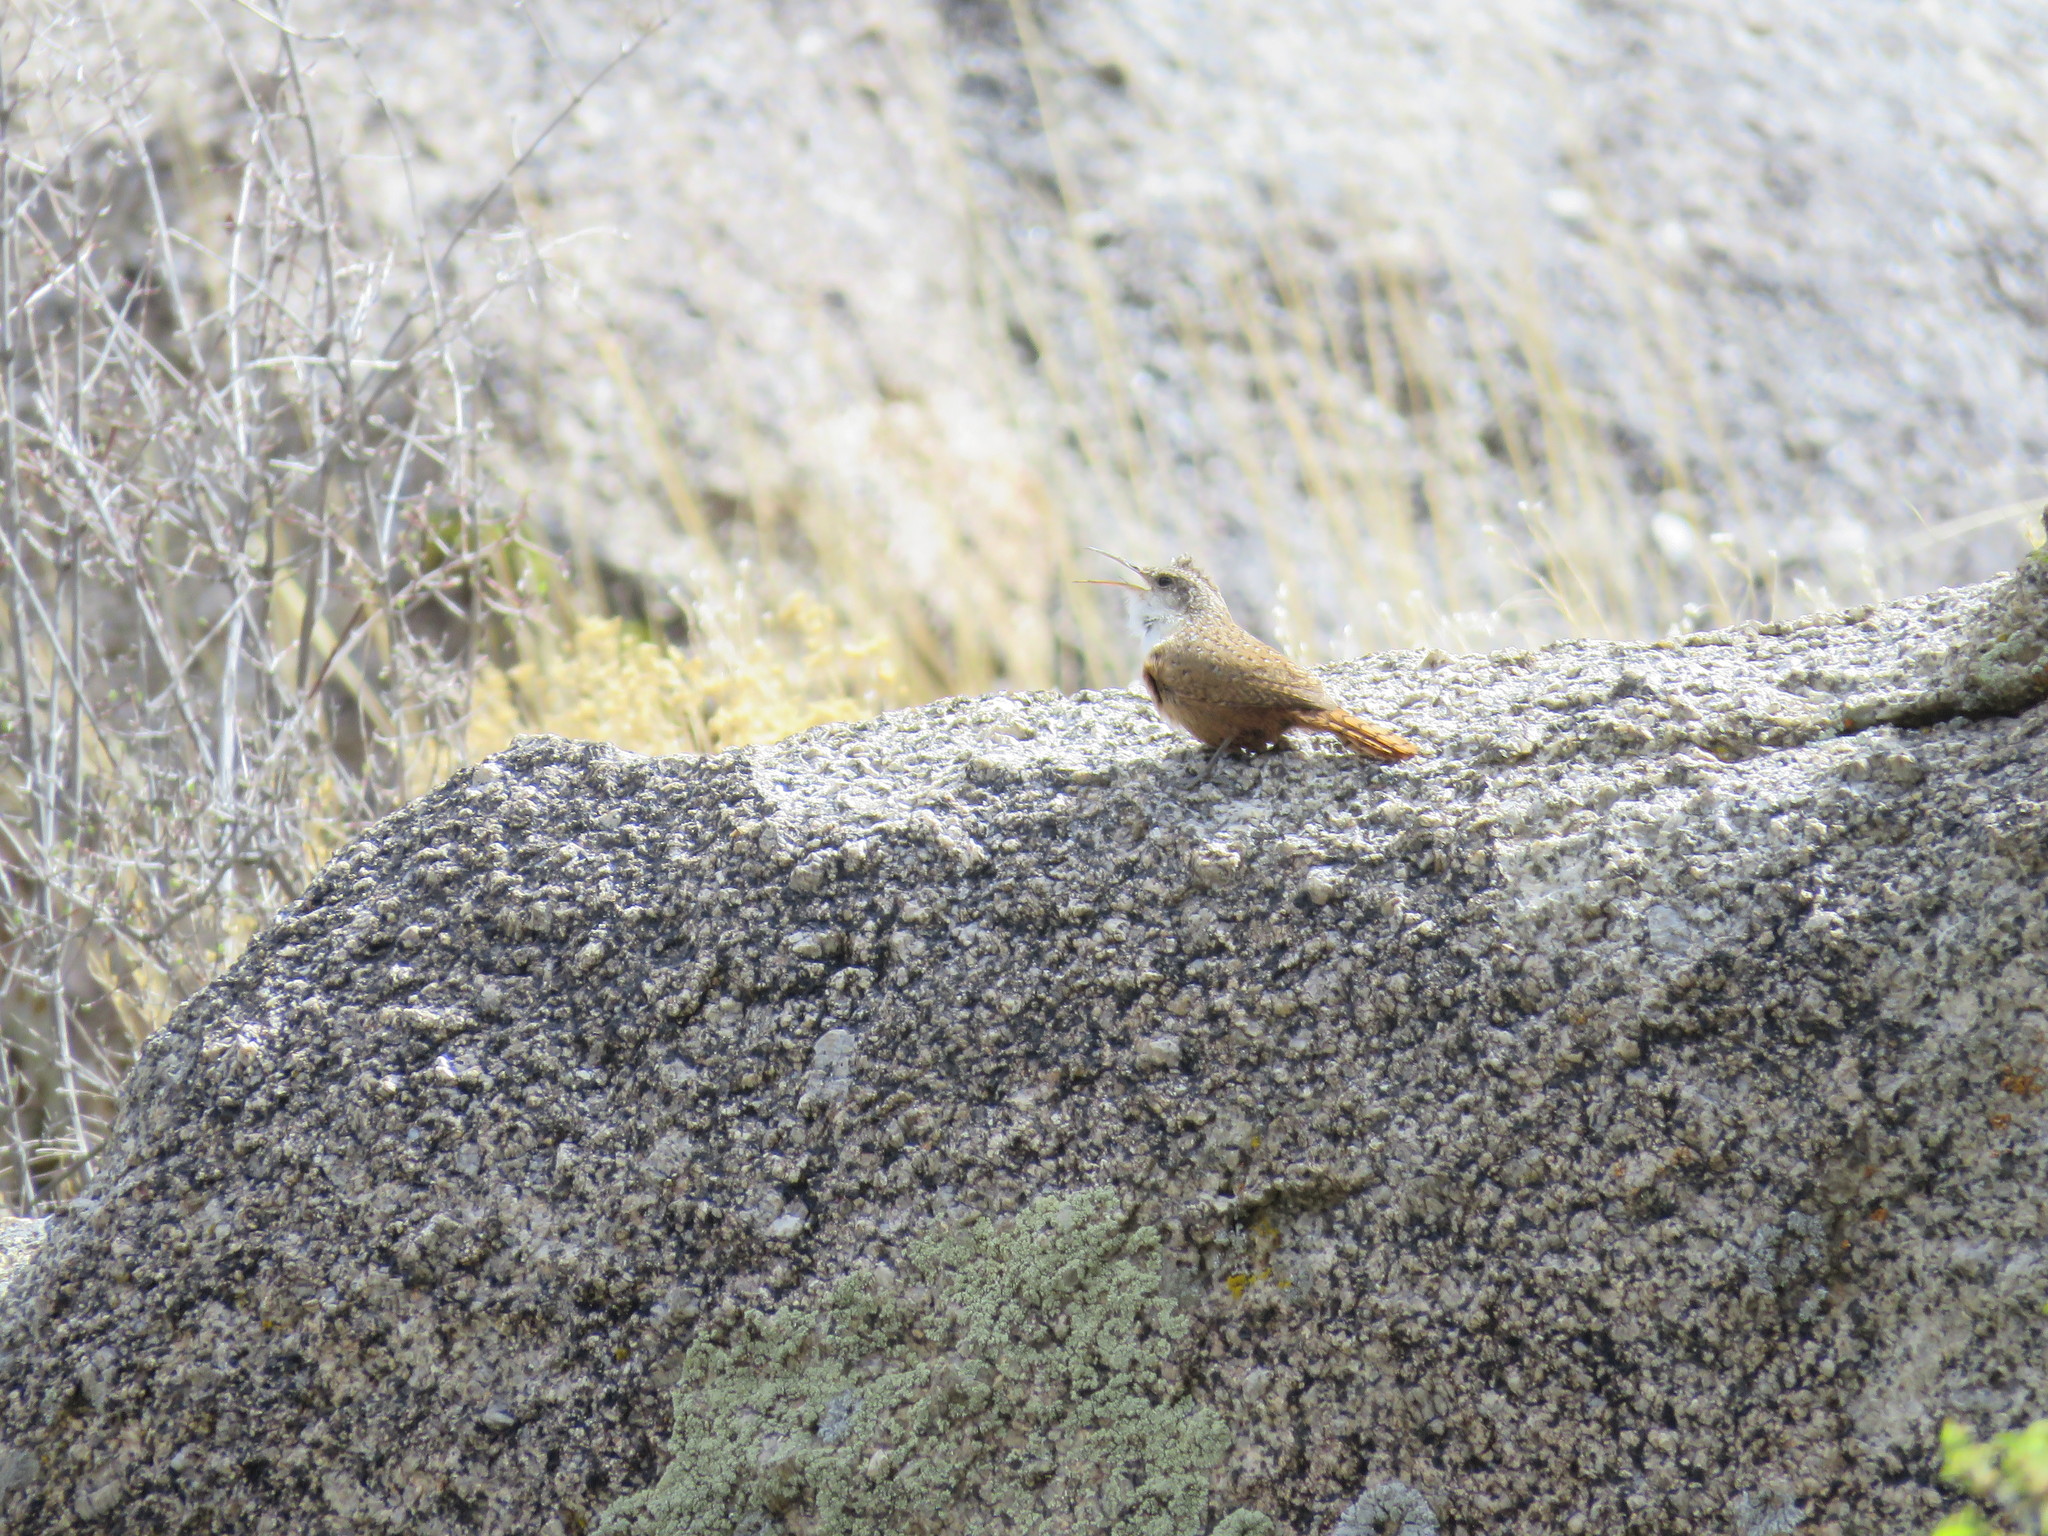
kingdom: Animalia
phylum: Chordata
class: Aves
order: Passeriformes
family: Troglodytidae
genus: Catherpes
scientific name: Catherpes mexicanus
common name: Canyon wren
